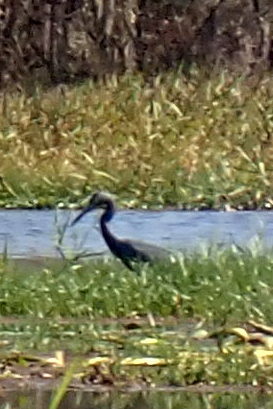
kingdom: Animalia
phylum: Chordata
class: Aves
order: Pelecaniformes
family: Ardeidae
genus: Egretta
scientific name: Egretta caerulea
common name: Little blue heron
